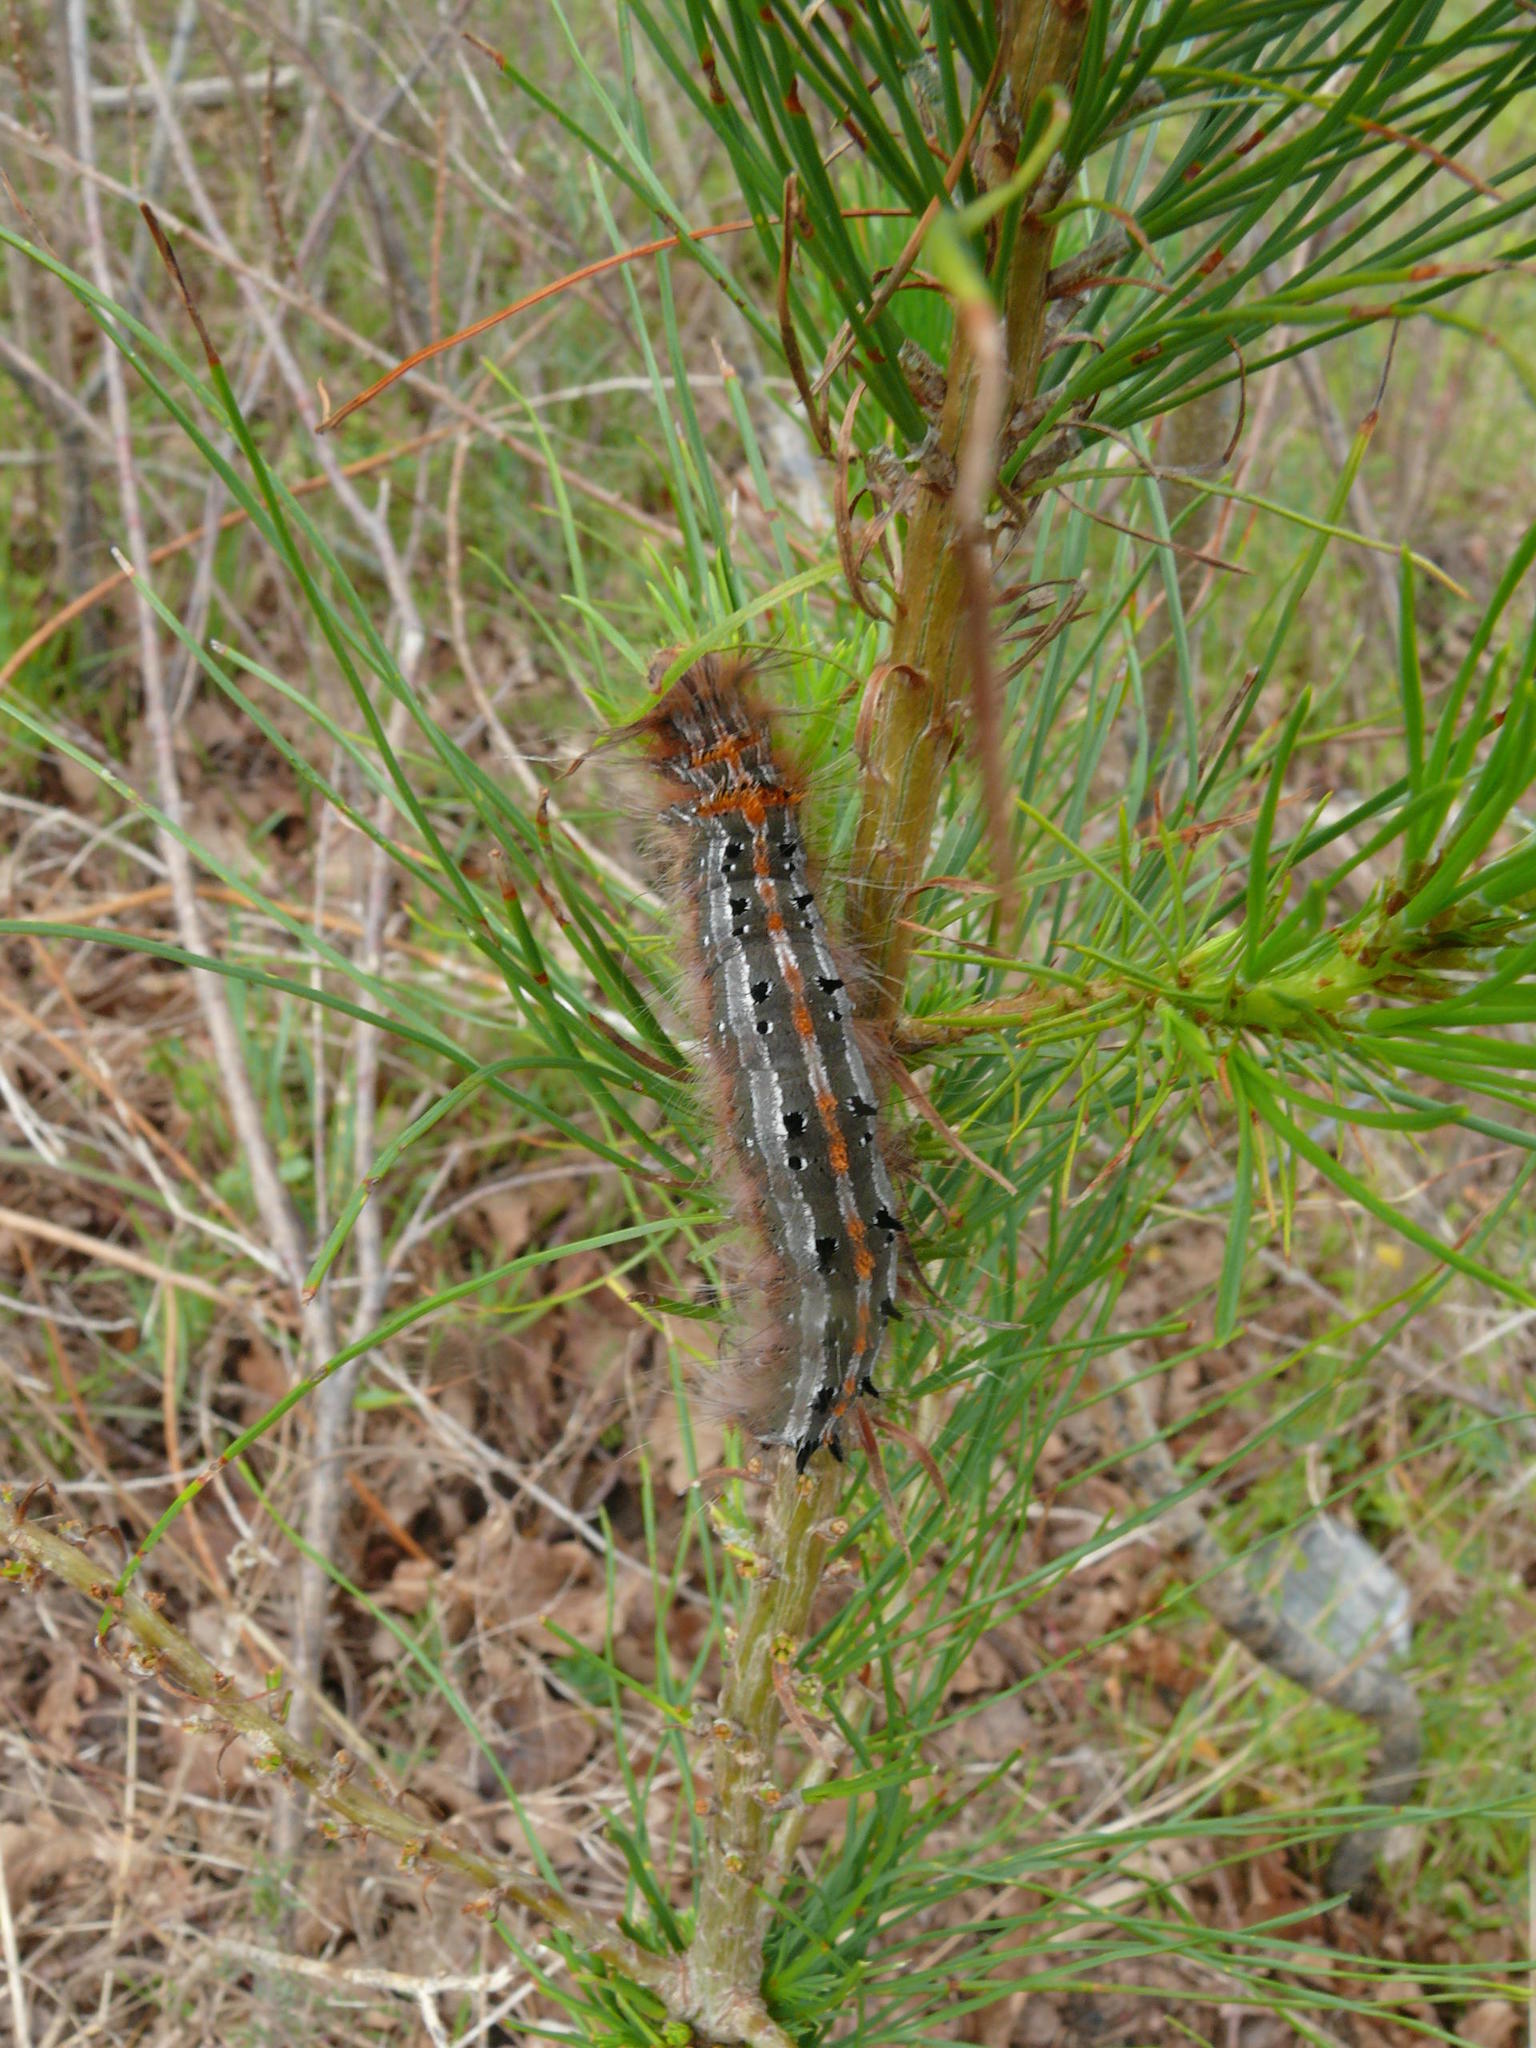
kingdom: Animalia
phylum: Arthropoda
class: Insecta
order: Lepidoptera
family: Lasiocampidae
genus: Streblote
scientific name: Streblote cristata
